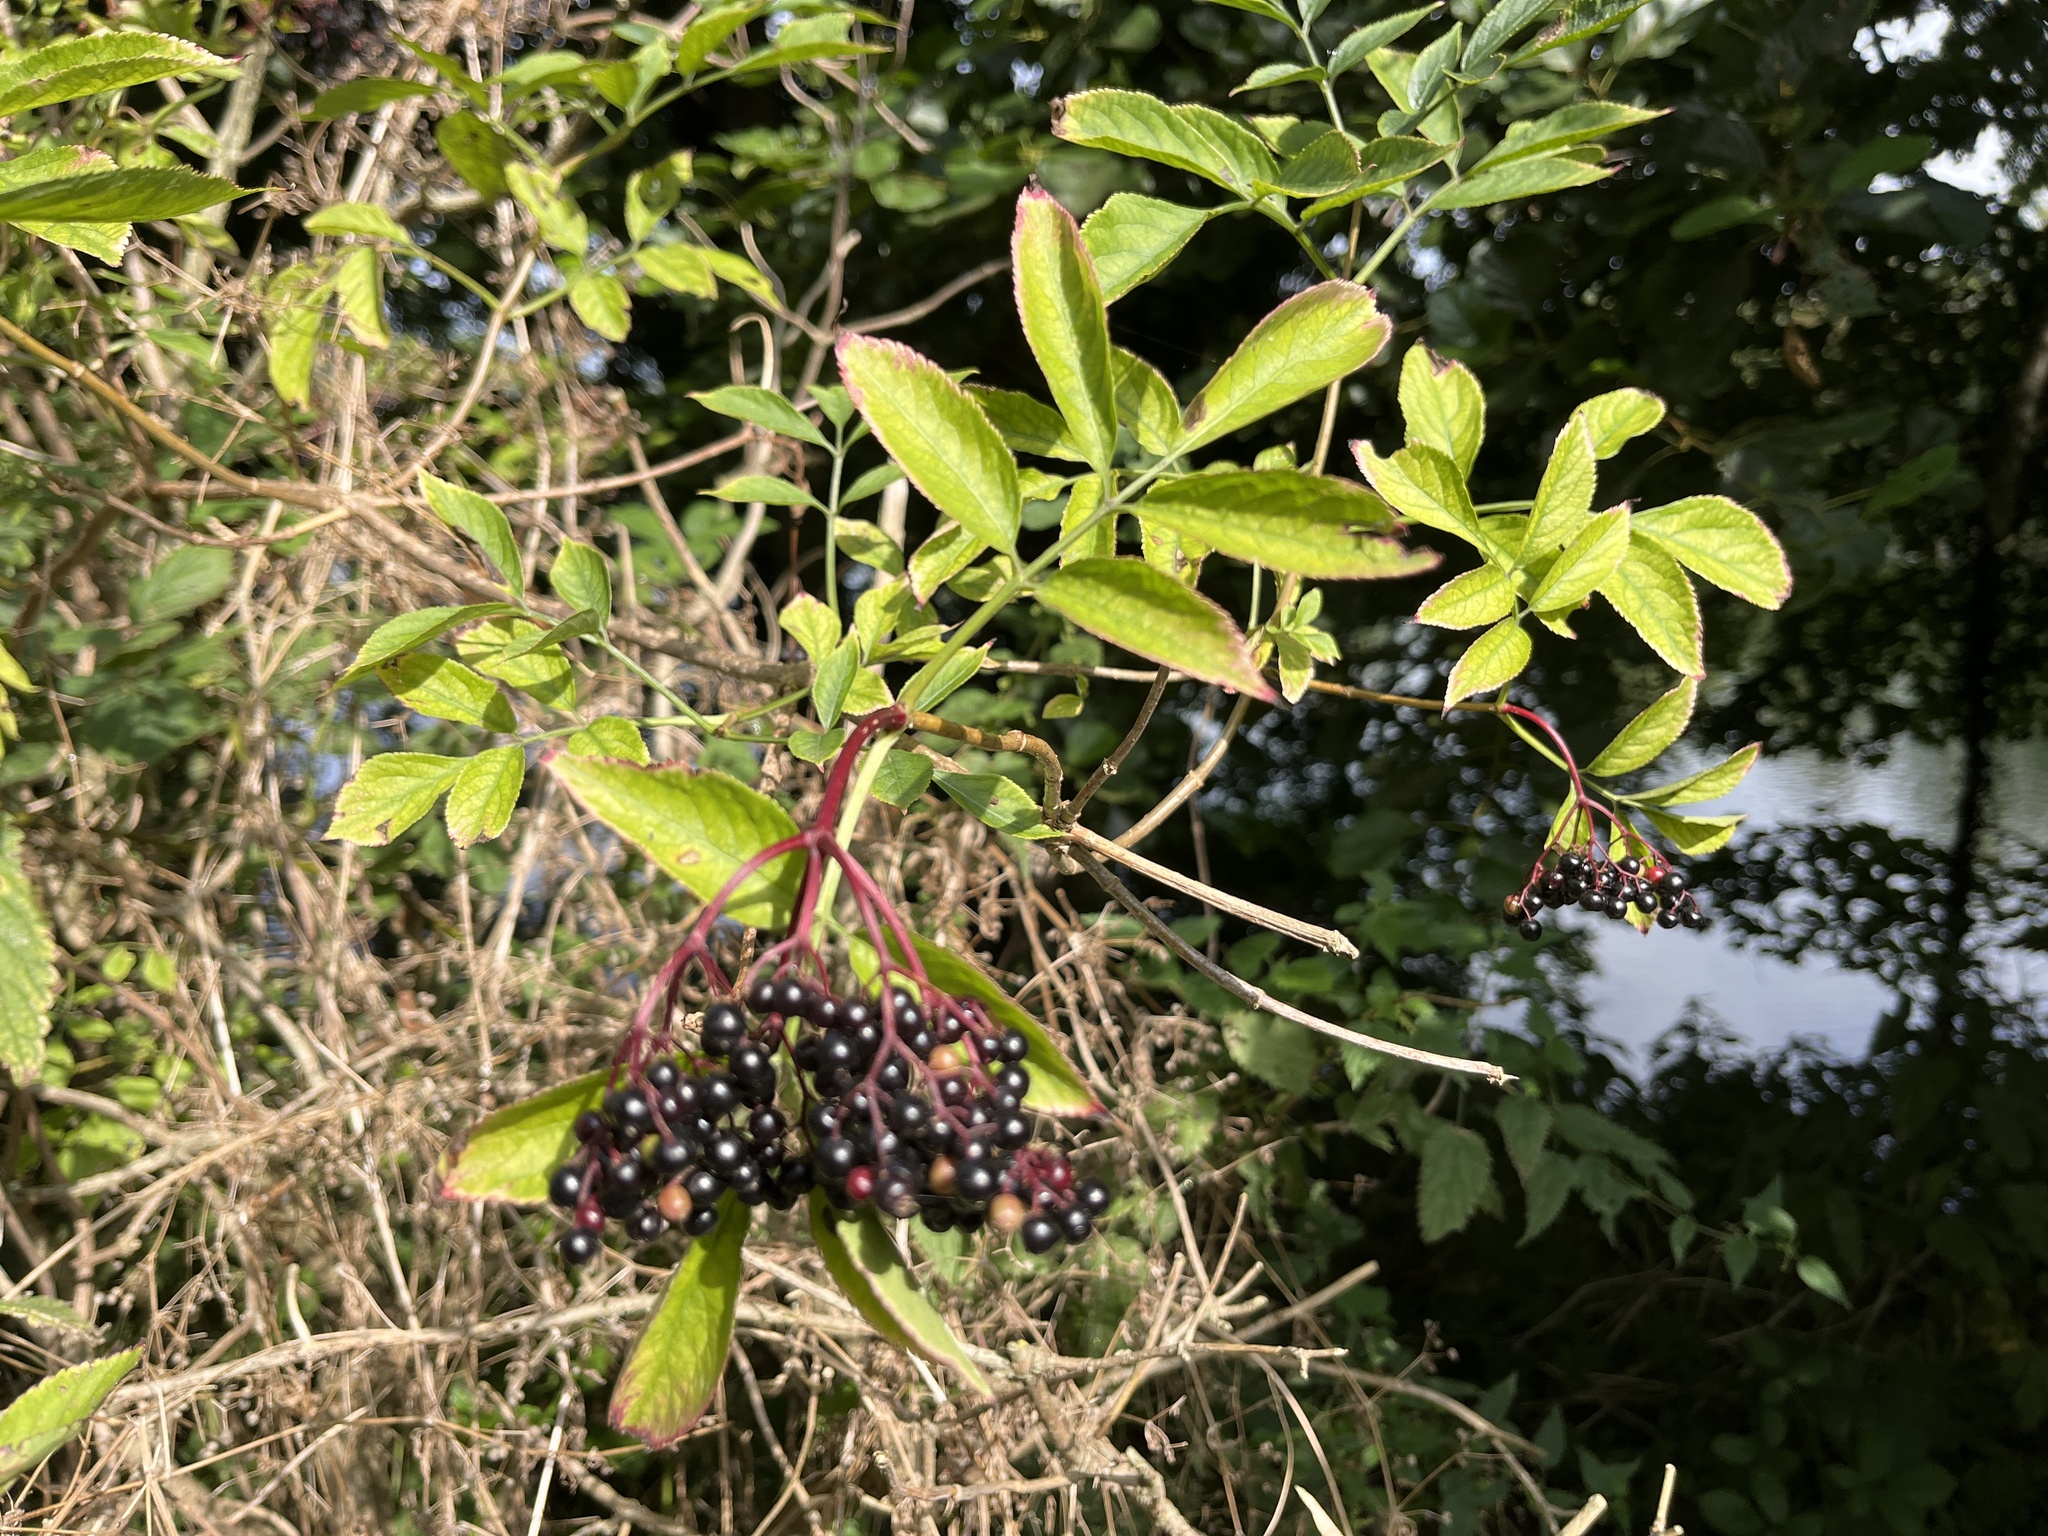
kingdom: Plantae
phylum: Tracheophyta
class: Magnoliopsida
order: Dipsacales
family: Viburnaceae
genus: Sambucus
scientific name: Sambucus nigra
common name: Elder
